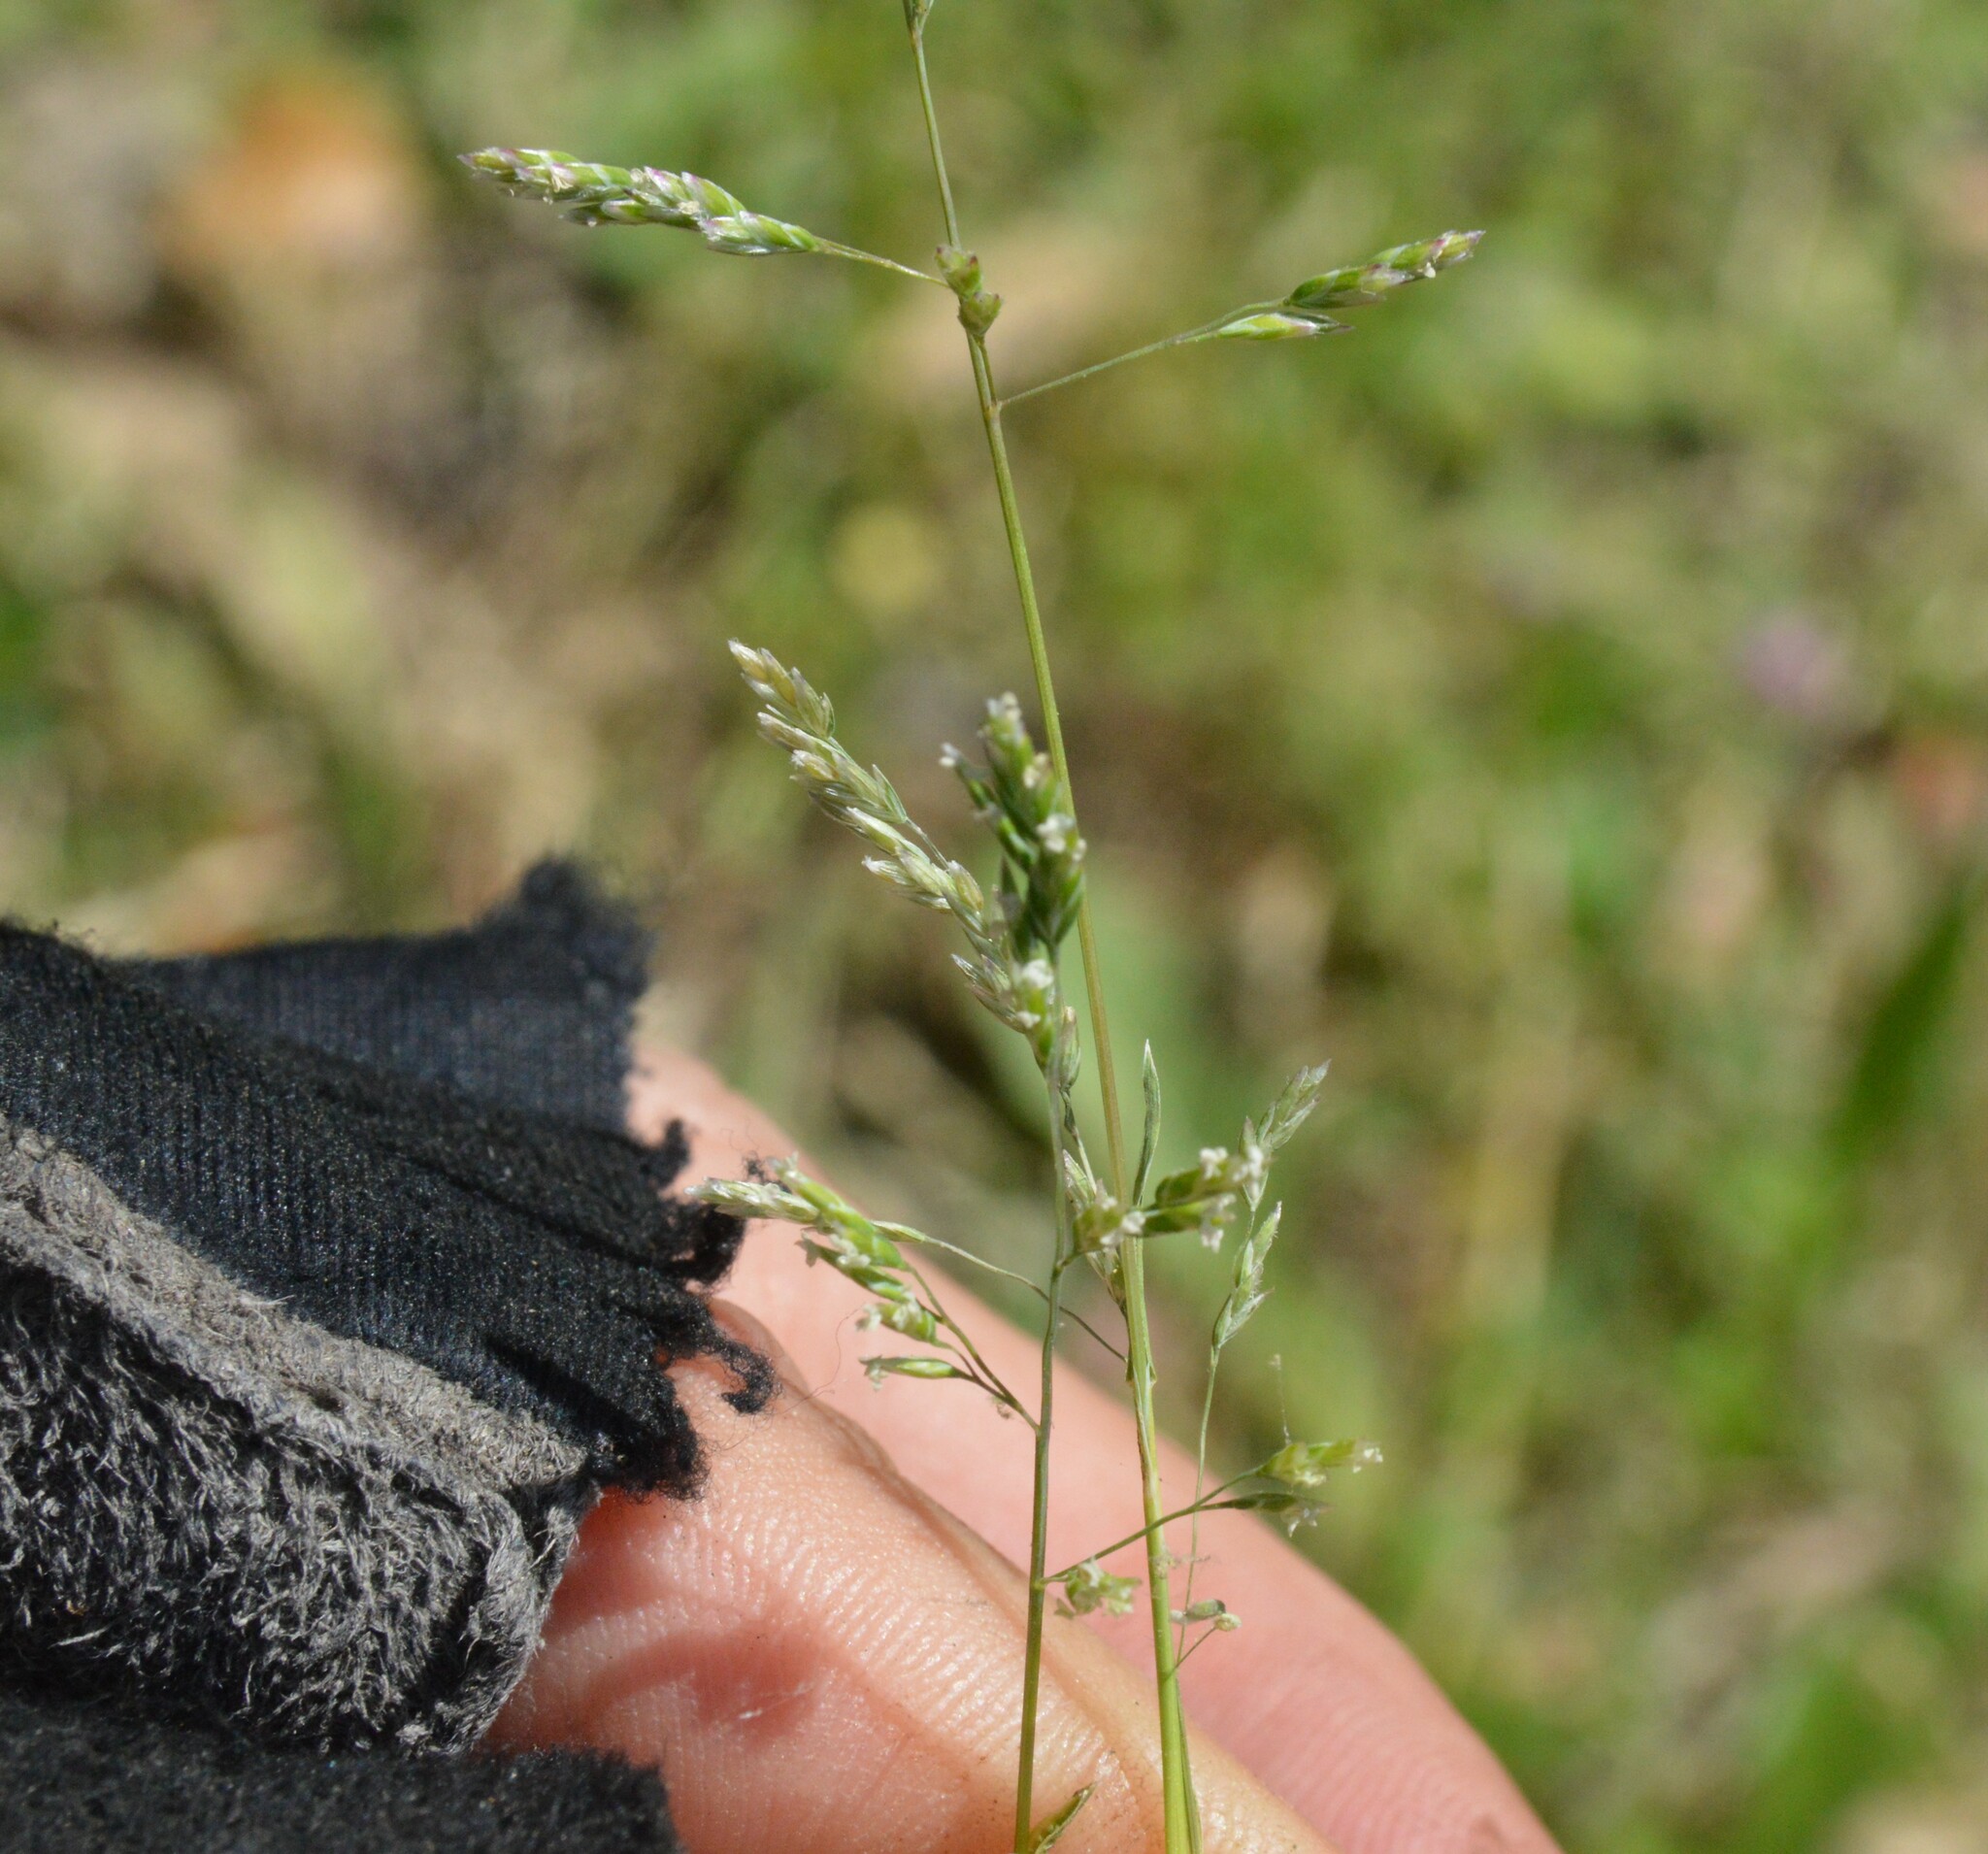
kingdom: Plantae
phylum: Tracheophyta
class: Liliopsida
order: Poales
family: Poaceae
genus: Poa
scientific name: Poa annua
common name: Annual bluegrass
